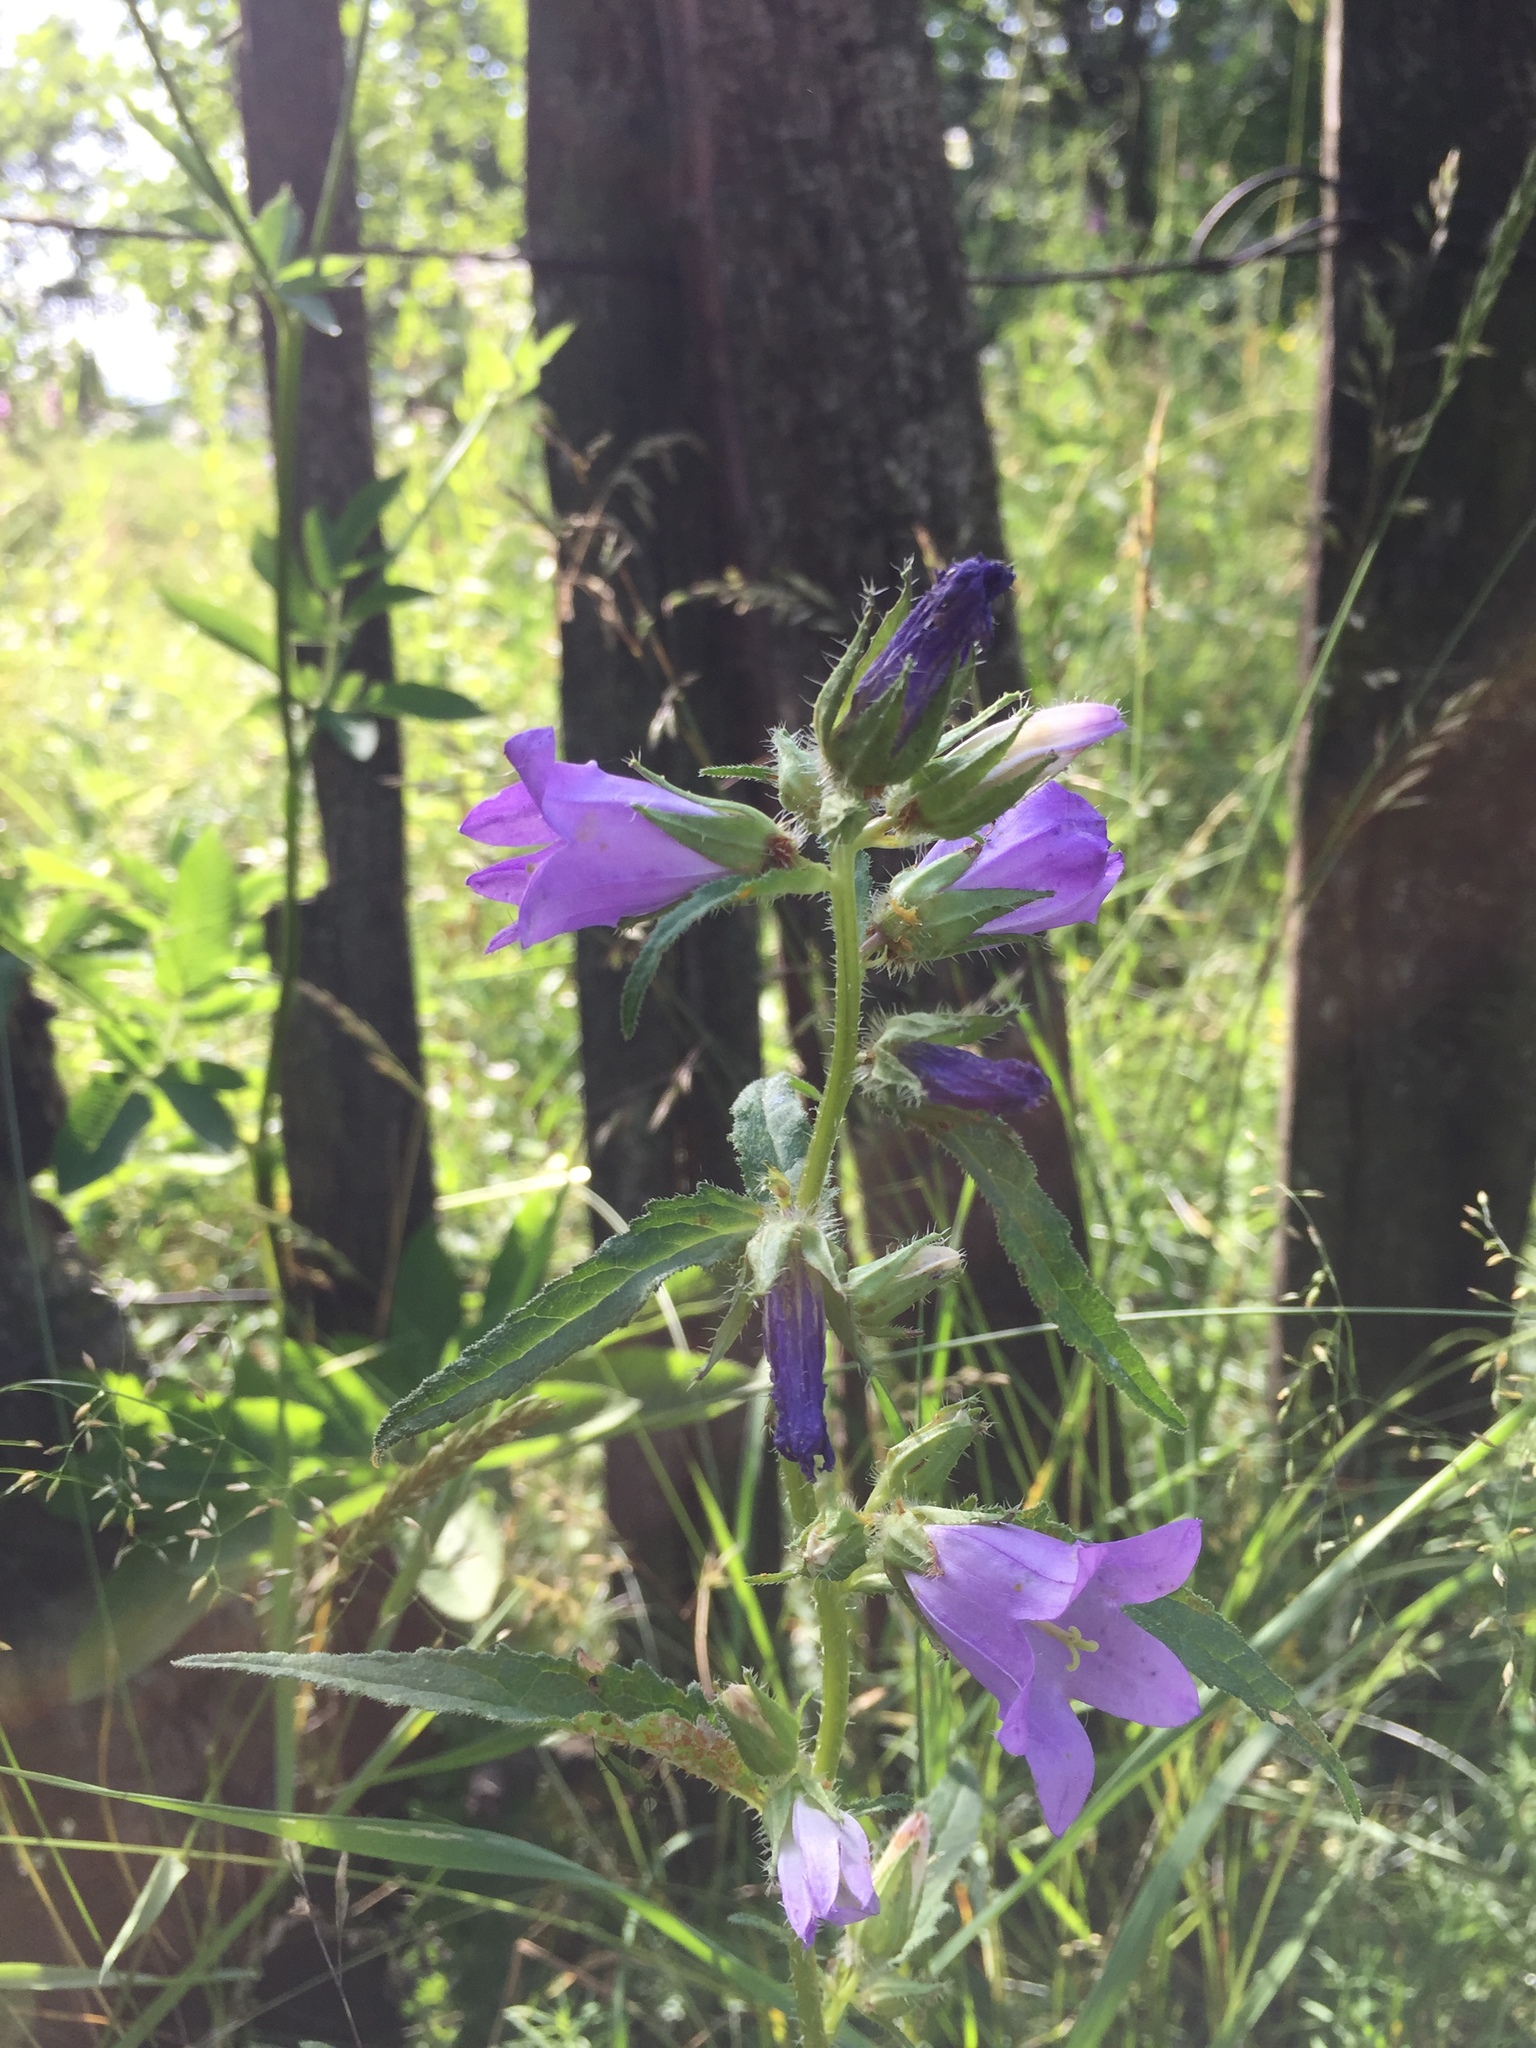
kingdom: Plantae
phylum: Tracheophyta
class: Magnoliopsida
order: Asterales
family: Campanulaceae
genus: Campanula
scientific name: Campanula sibirica
